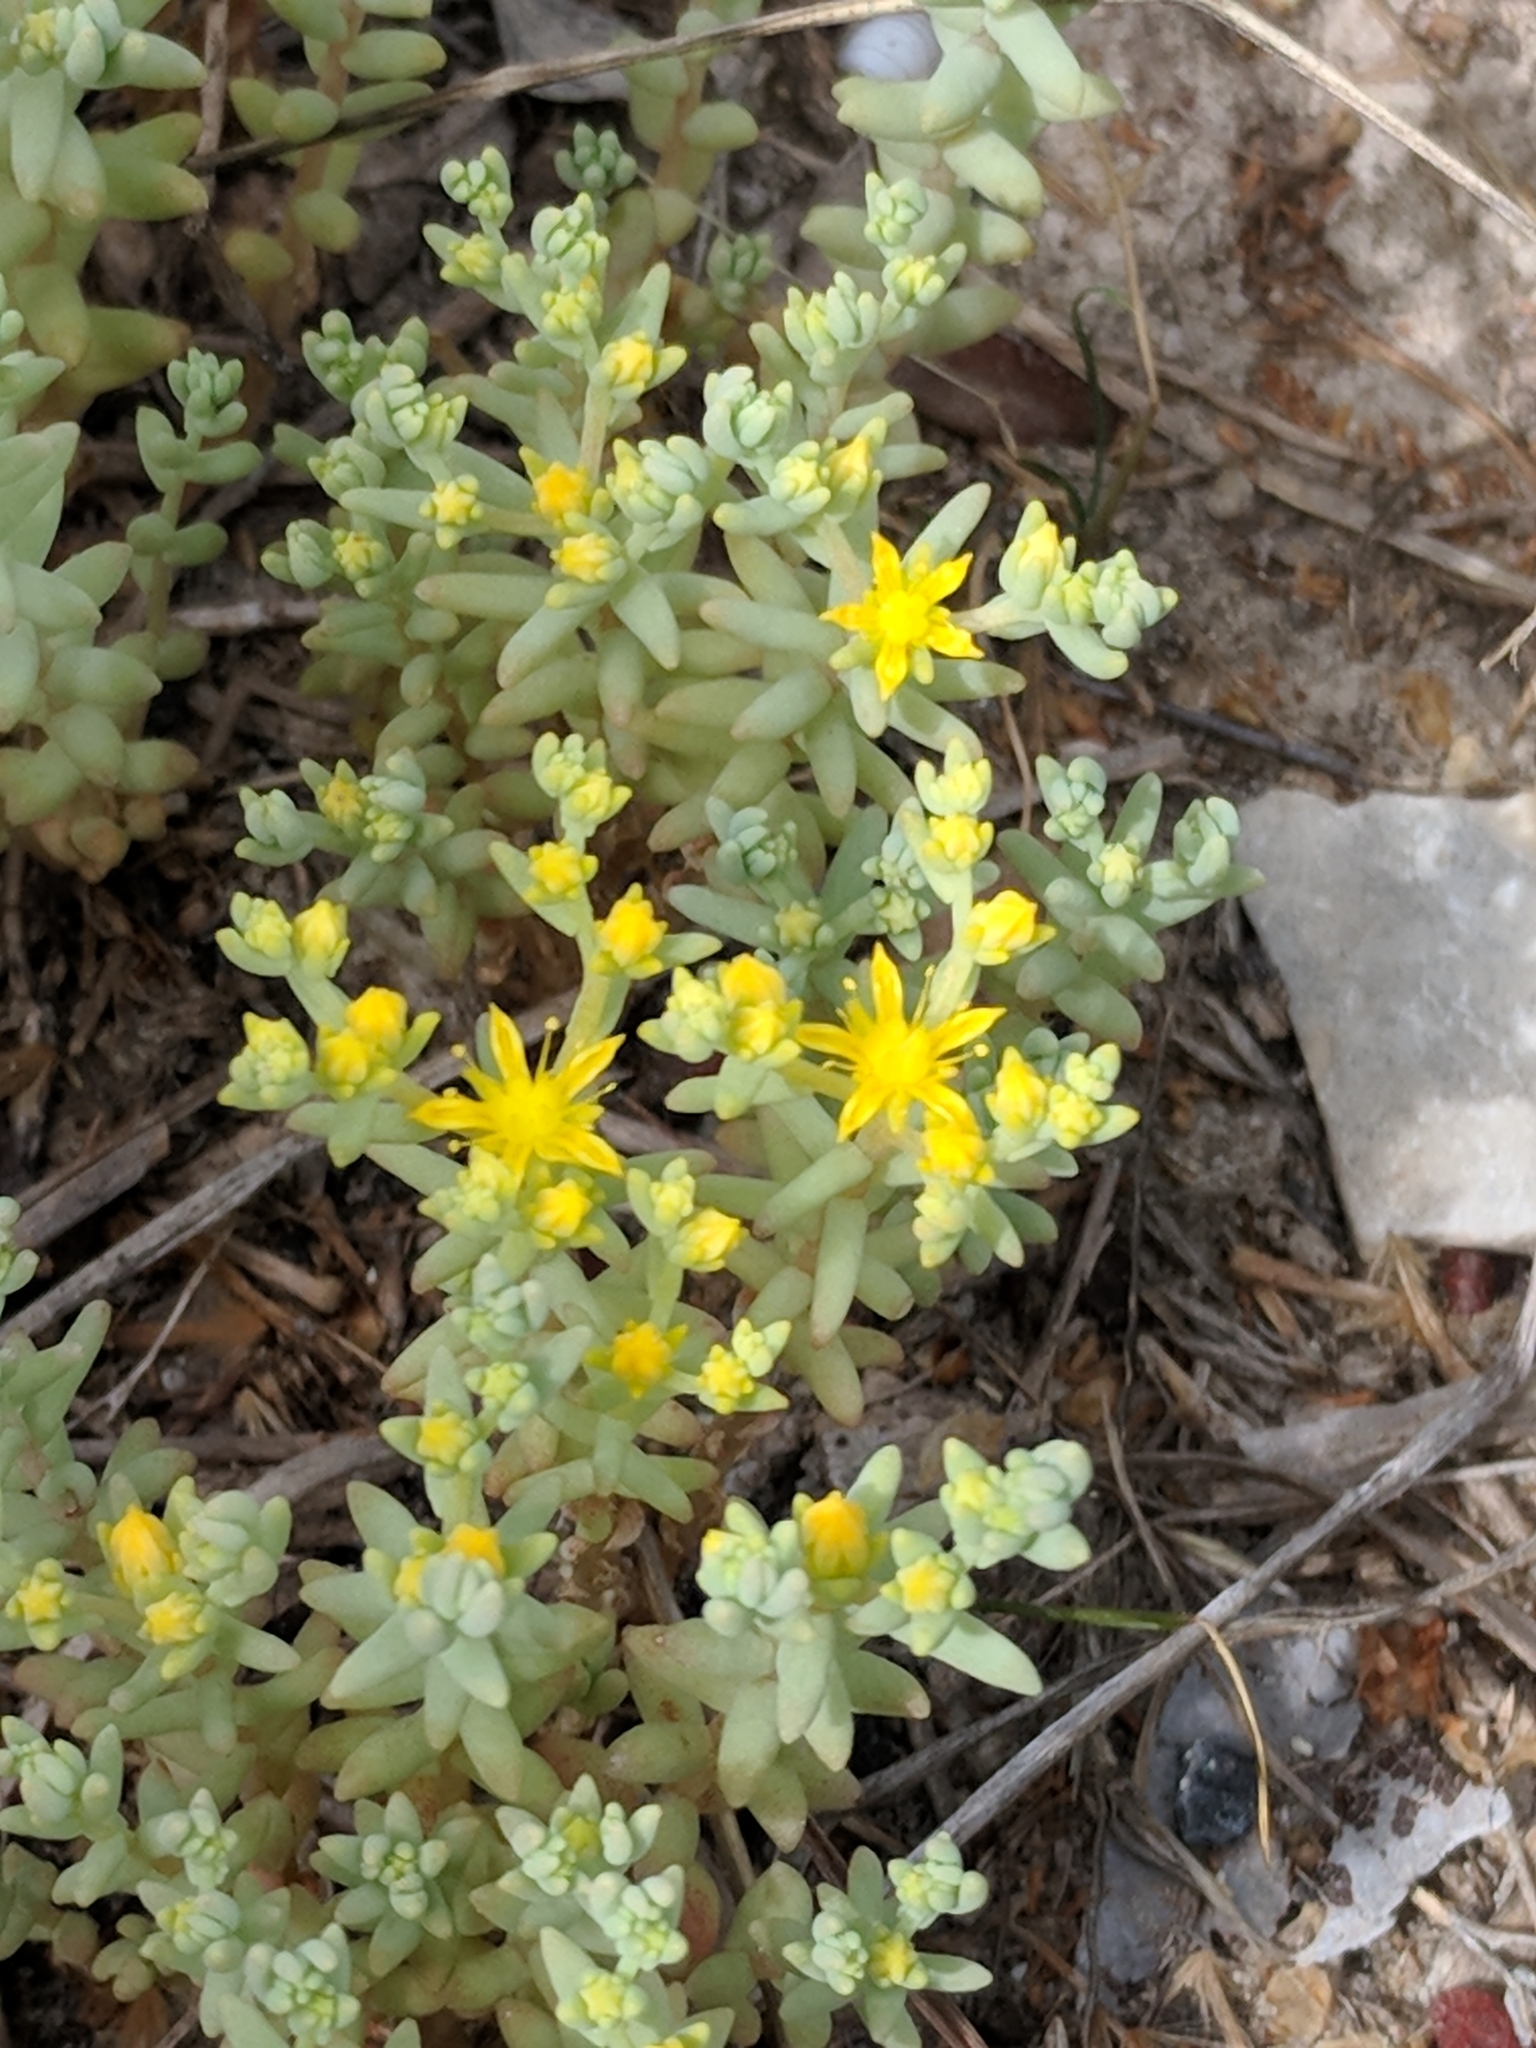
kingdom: Plantae
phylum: Tracheophyta
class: Magnoliopsida
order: Saxifragales
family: Crassulaceae
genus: Sedum
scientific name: Sedum nuttallii
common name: Yellow stonecrop
